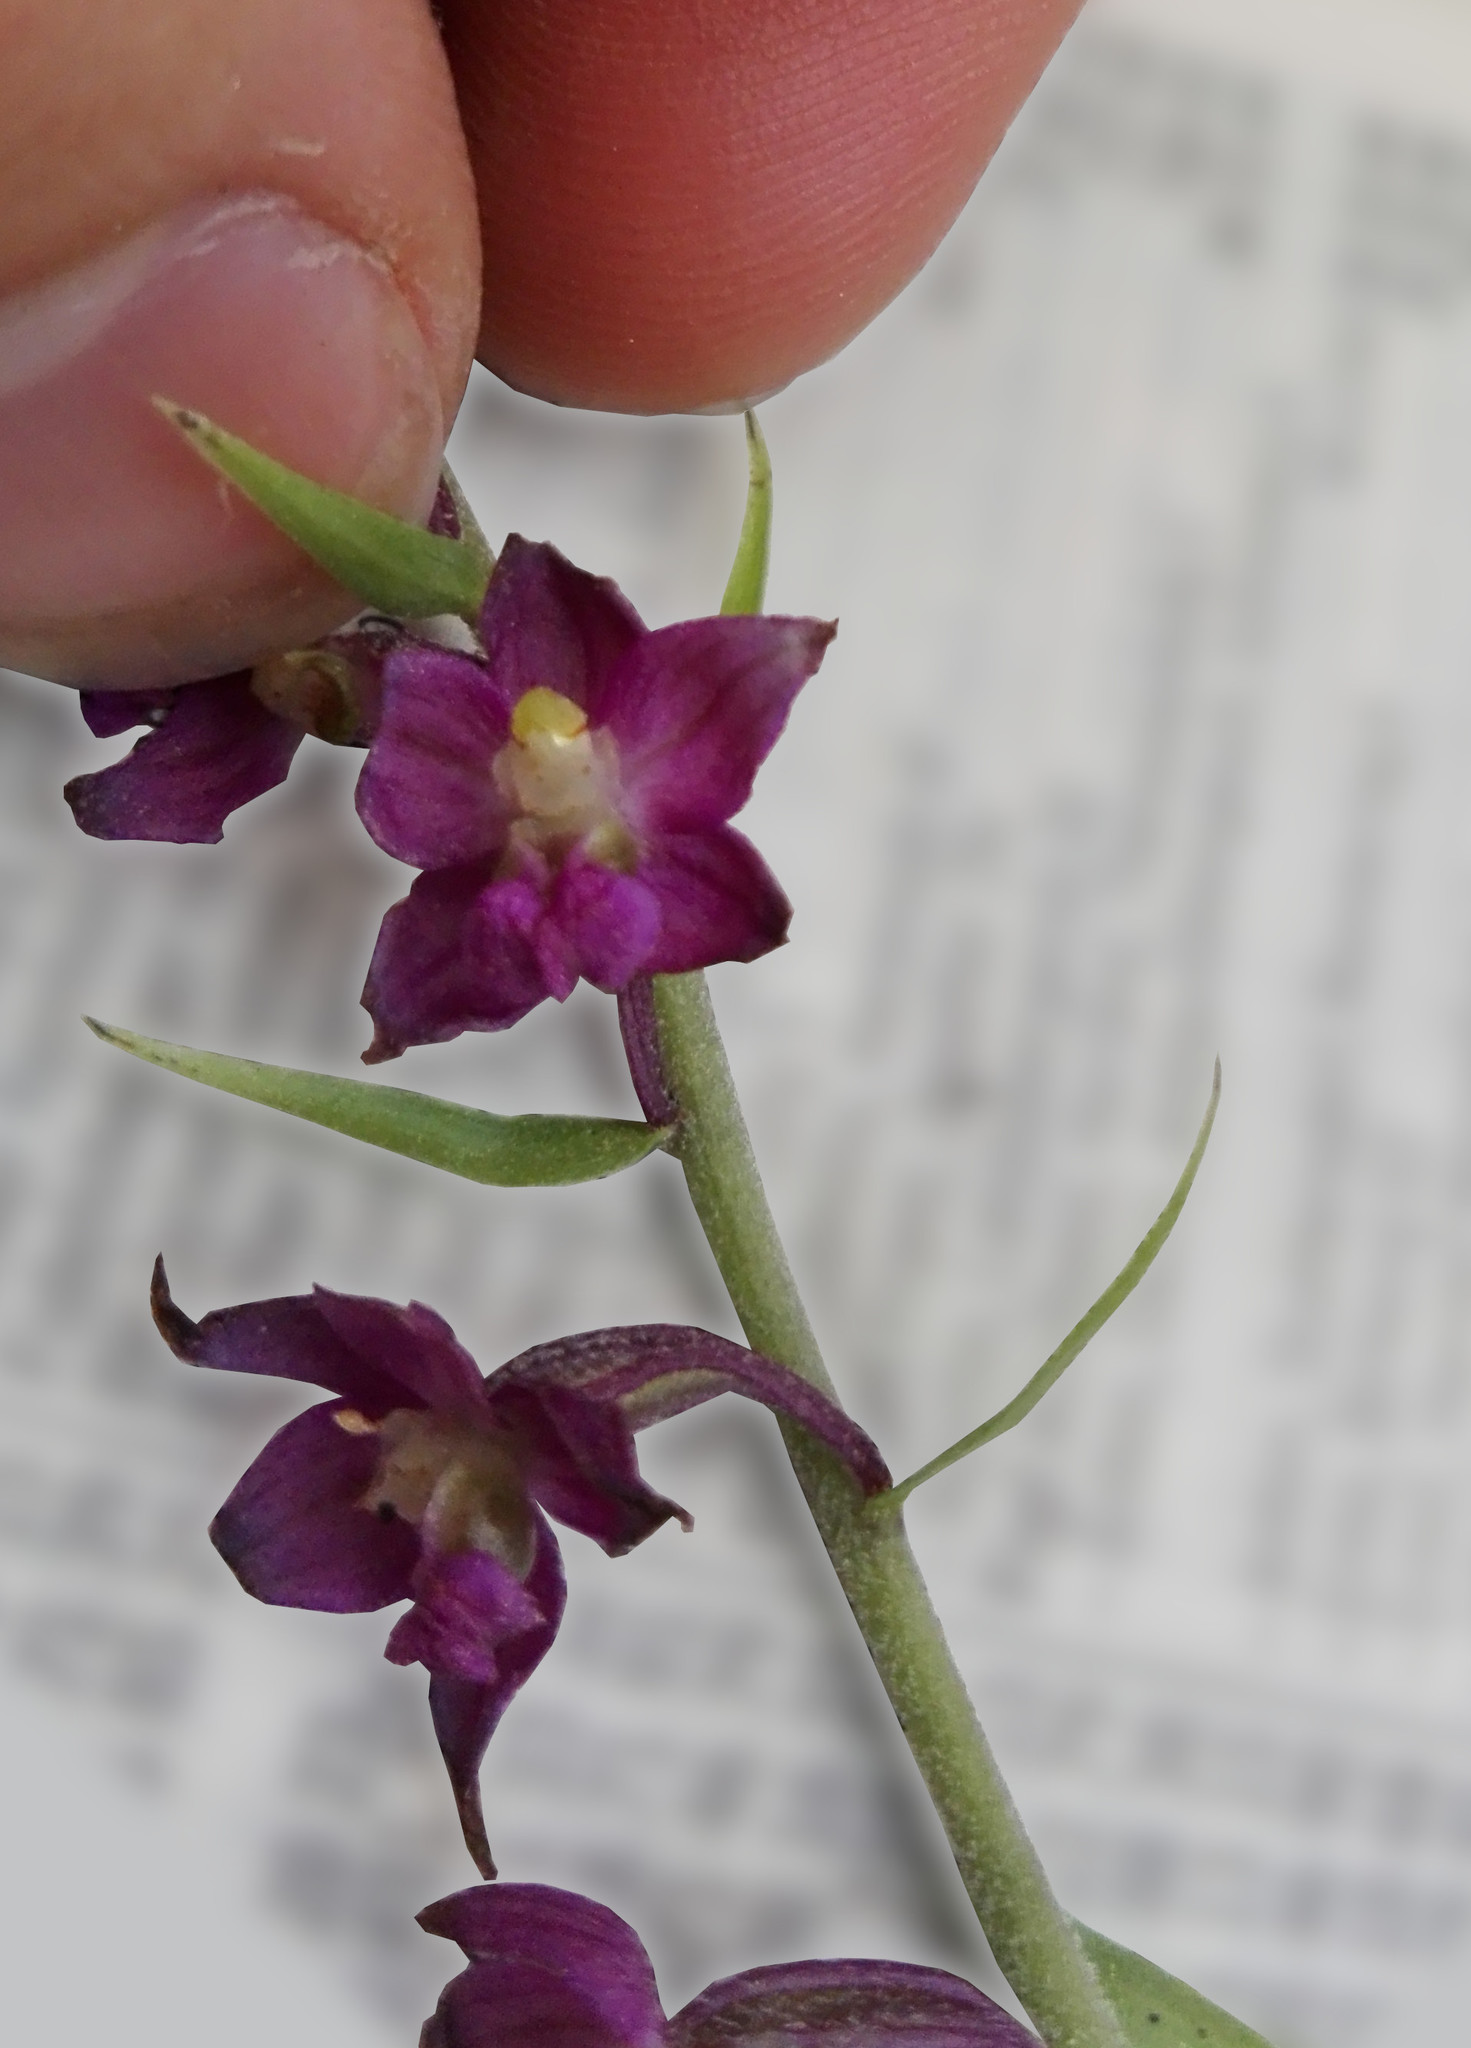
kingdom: Plantae
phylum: Tracheophyta
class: Liliopsida
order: Asparagales
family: Orchidaceae
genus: Epipactis
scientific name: Epipactis atrorubens
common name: Dark-red helleborine
